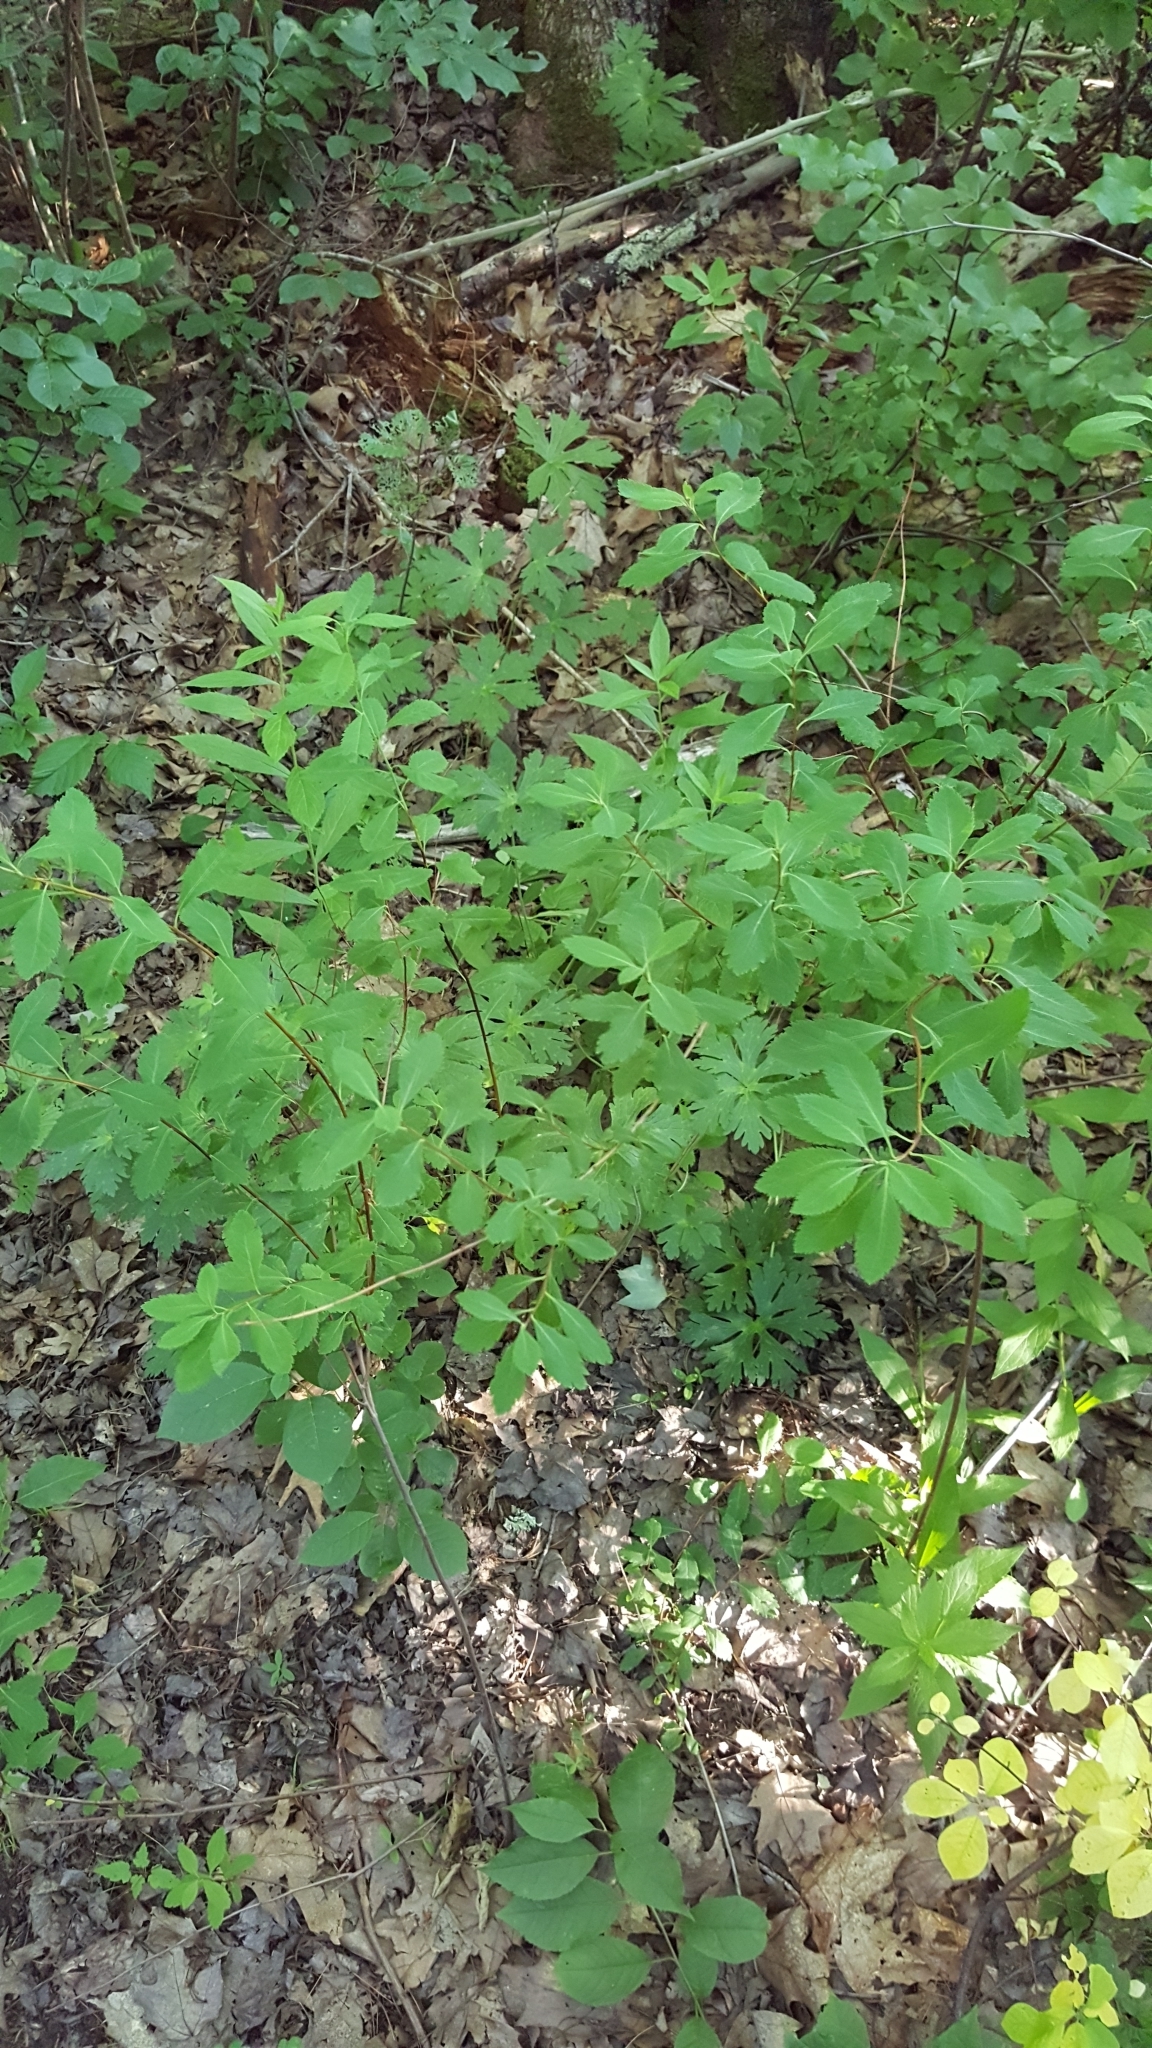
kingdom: Plantae
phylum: Tracheophyta
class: Magnoliopsida
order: Rosales
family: Rosaceae
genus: Spiraea
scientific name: Spiraea alba
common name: Pale bridewort
